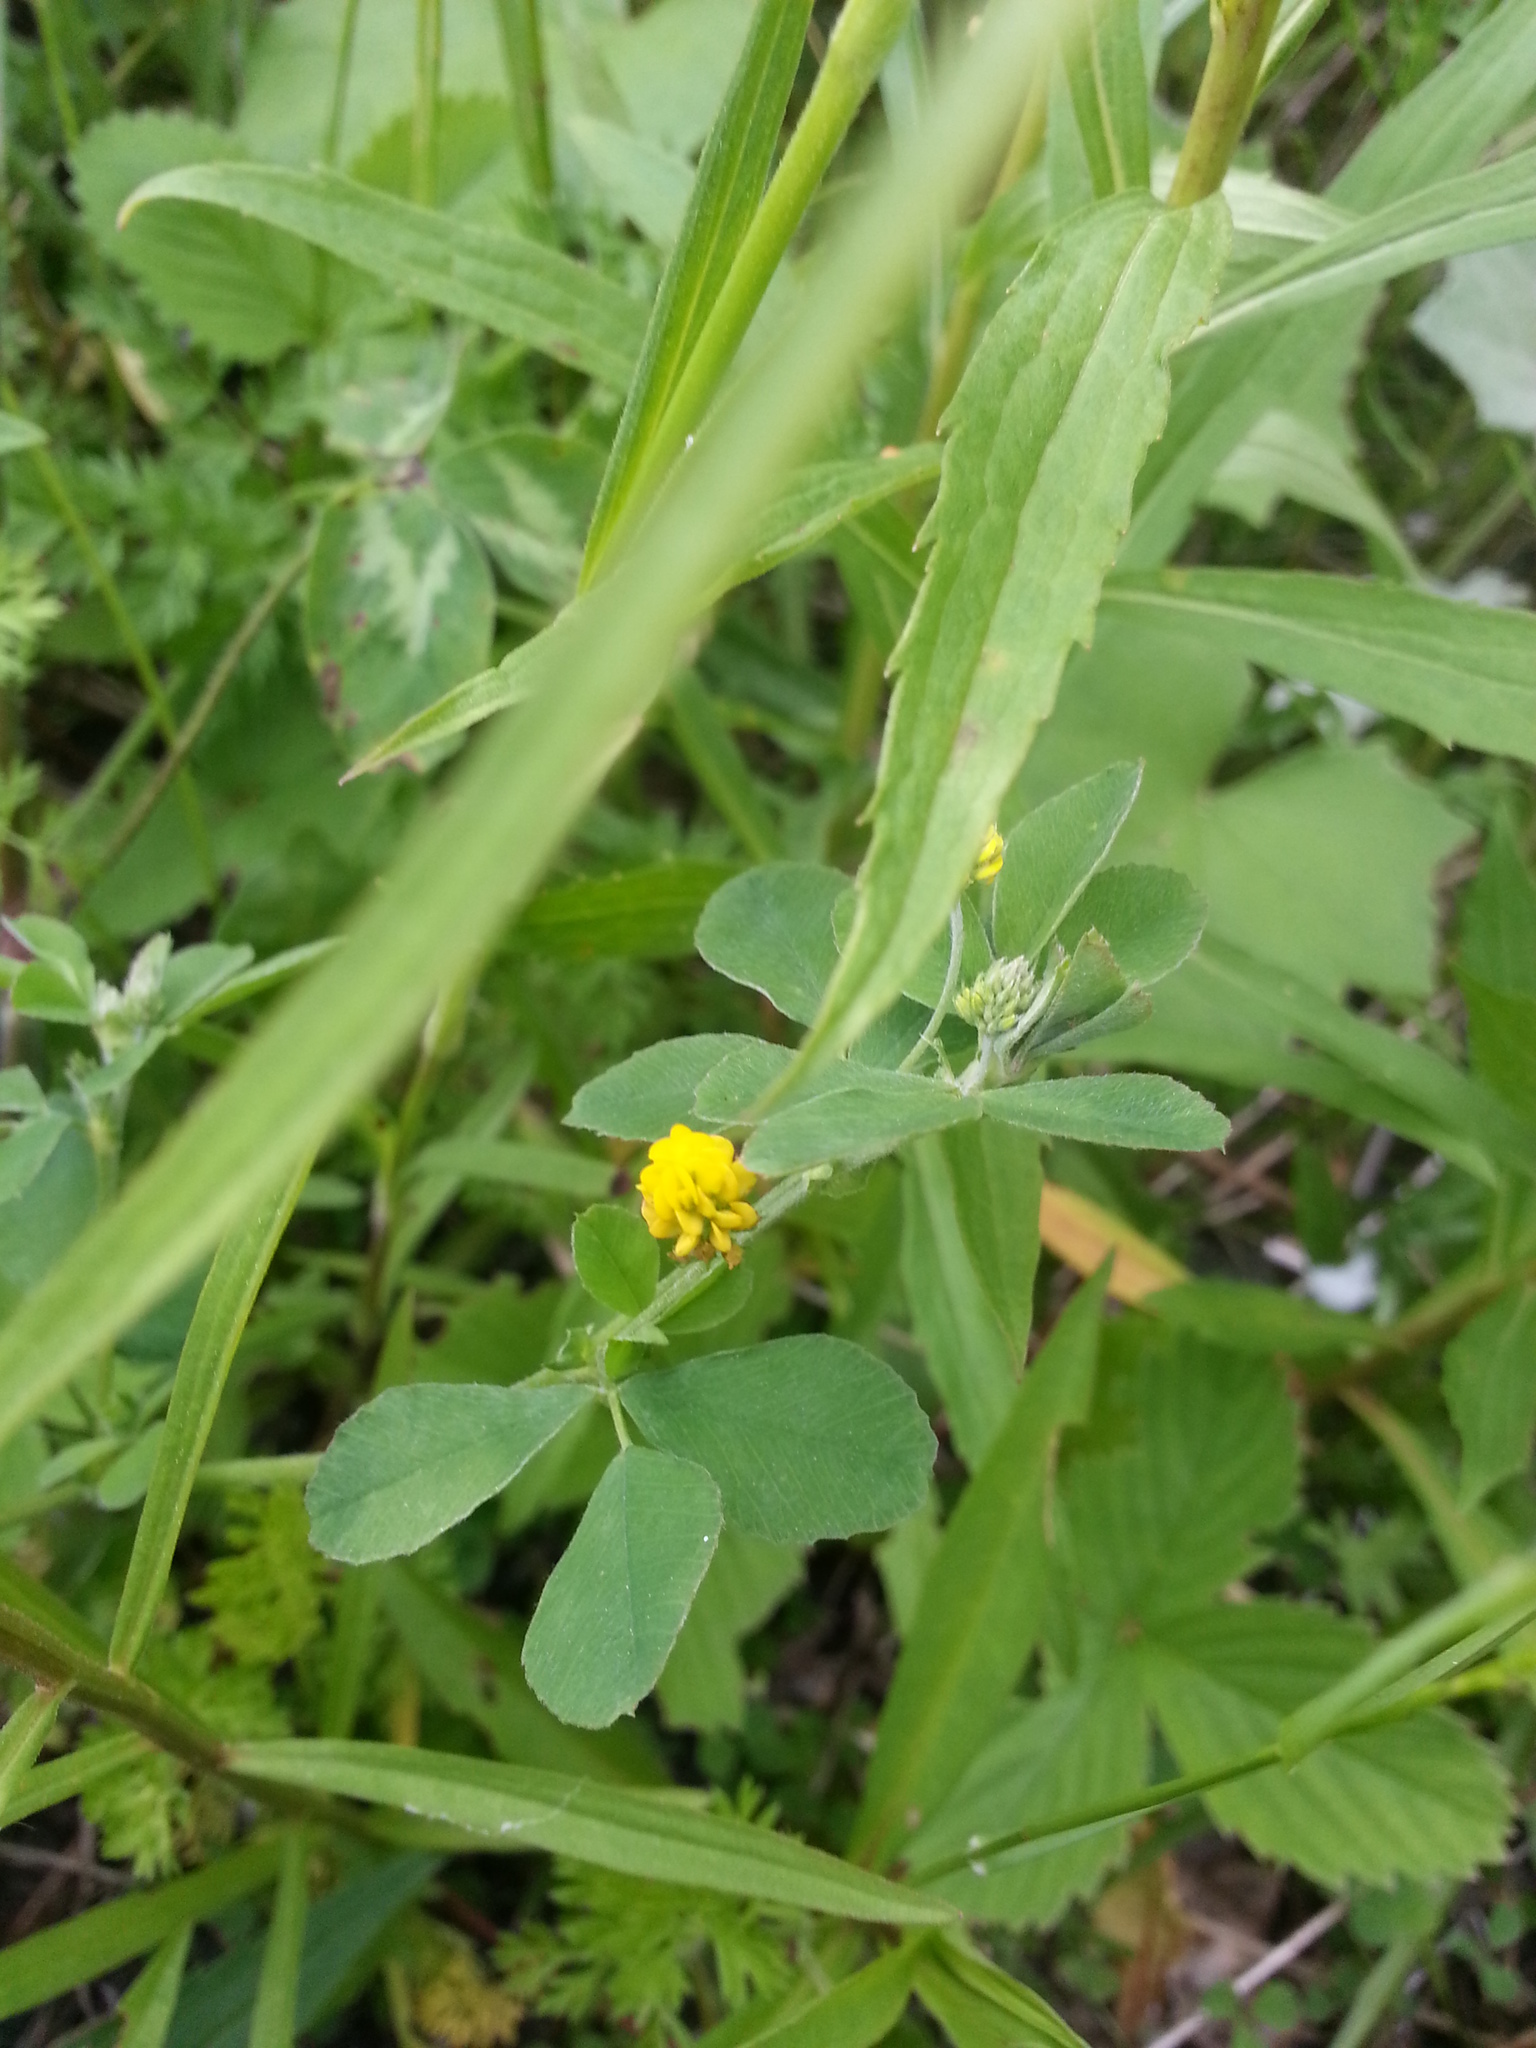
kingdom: Plantae
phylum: Tracheophyta
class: Magnoliopsida
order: Fabales
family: Fabaceae
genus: Medicago
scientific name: Medicago lupulina
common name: Black medick
